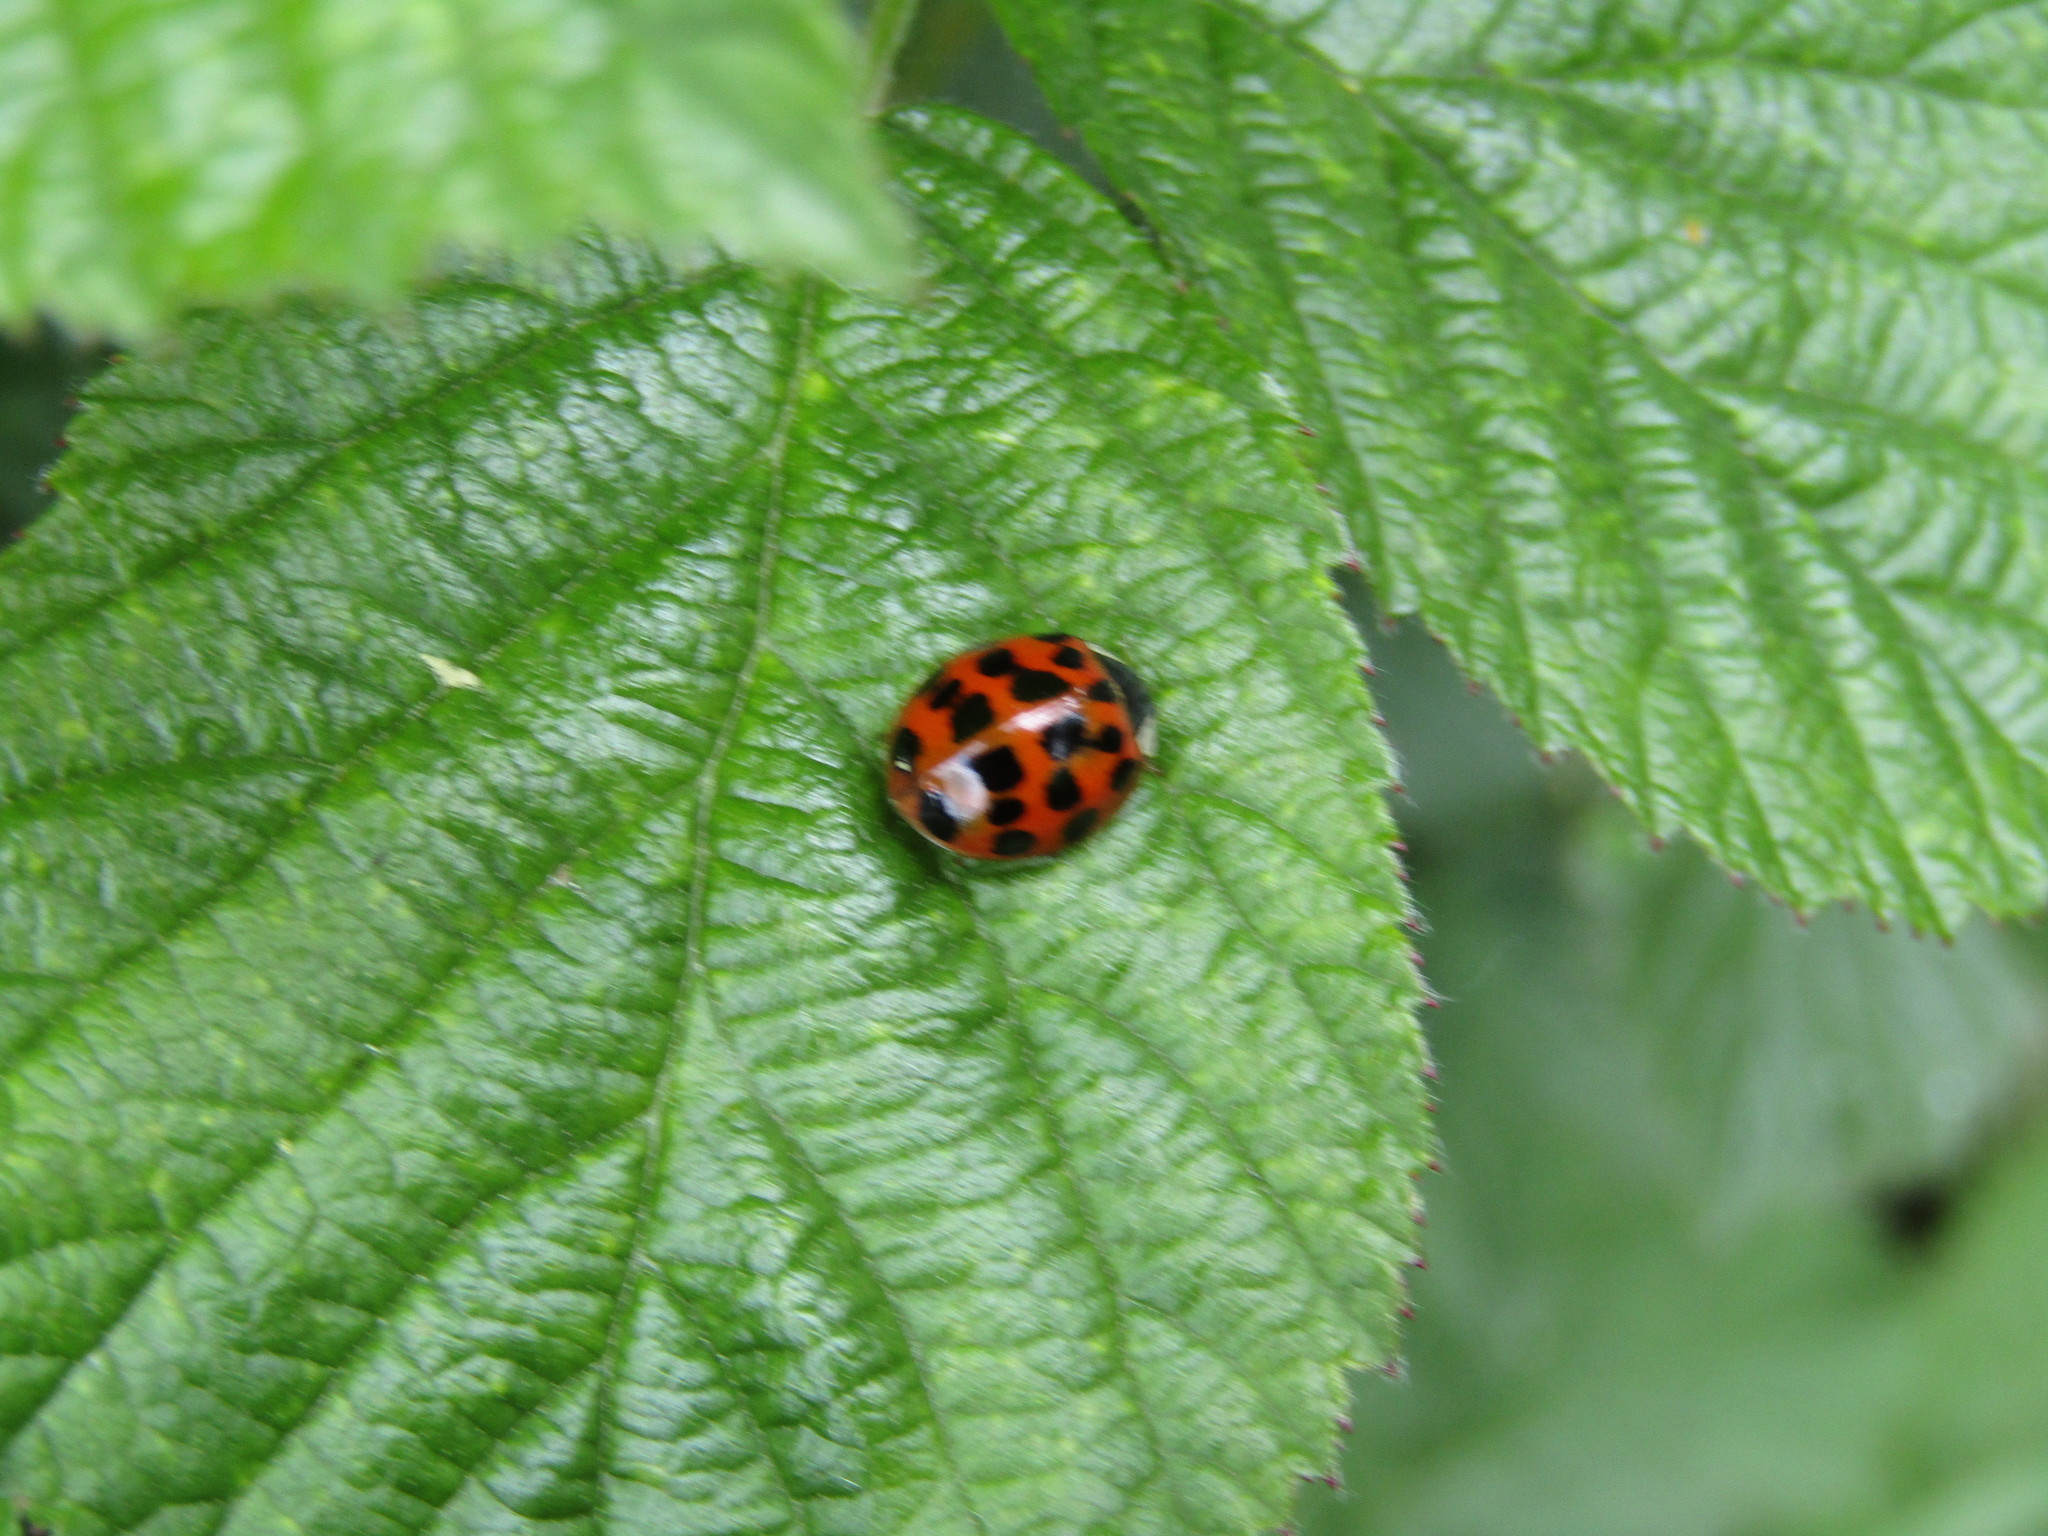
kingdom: Animalia
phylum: Arthropoda
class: Insecta
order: Coleoptera
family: Coccinellidae
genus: Harmonia
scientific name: Harmonia axyridis
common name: Harlequin ladybird
